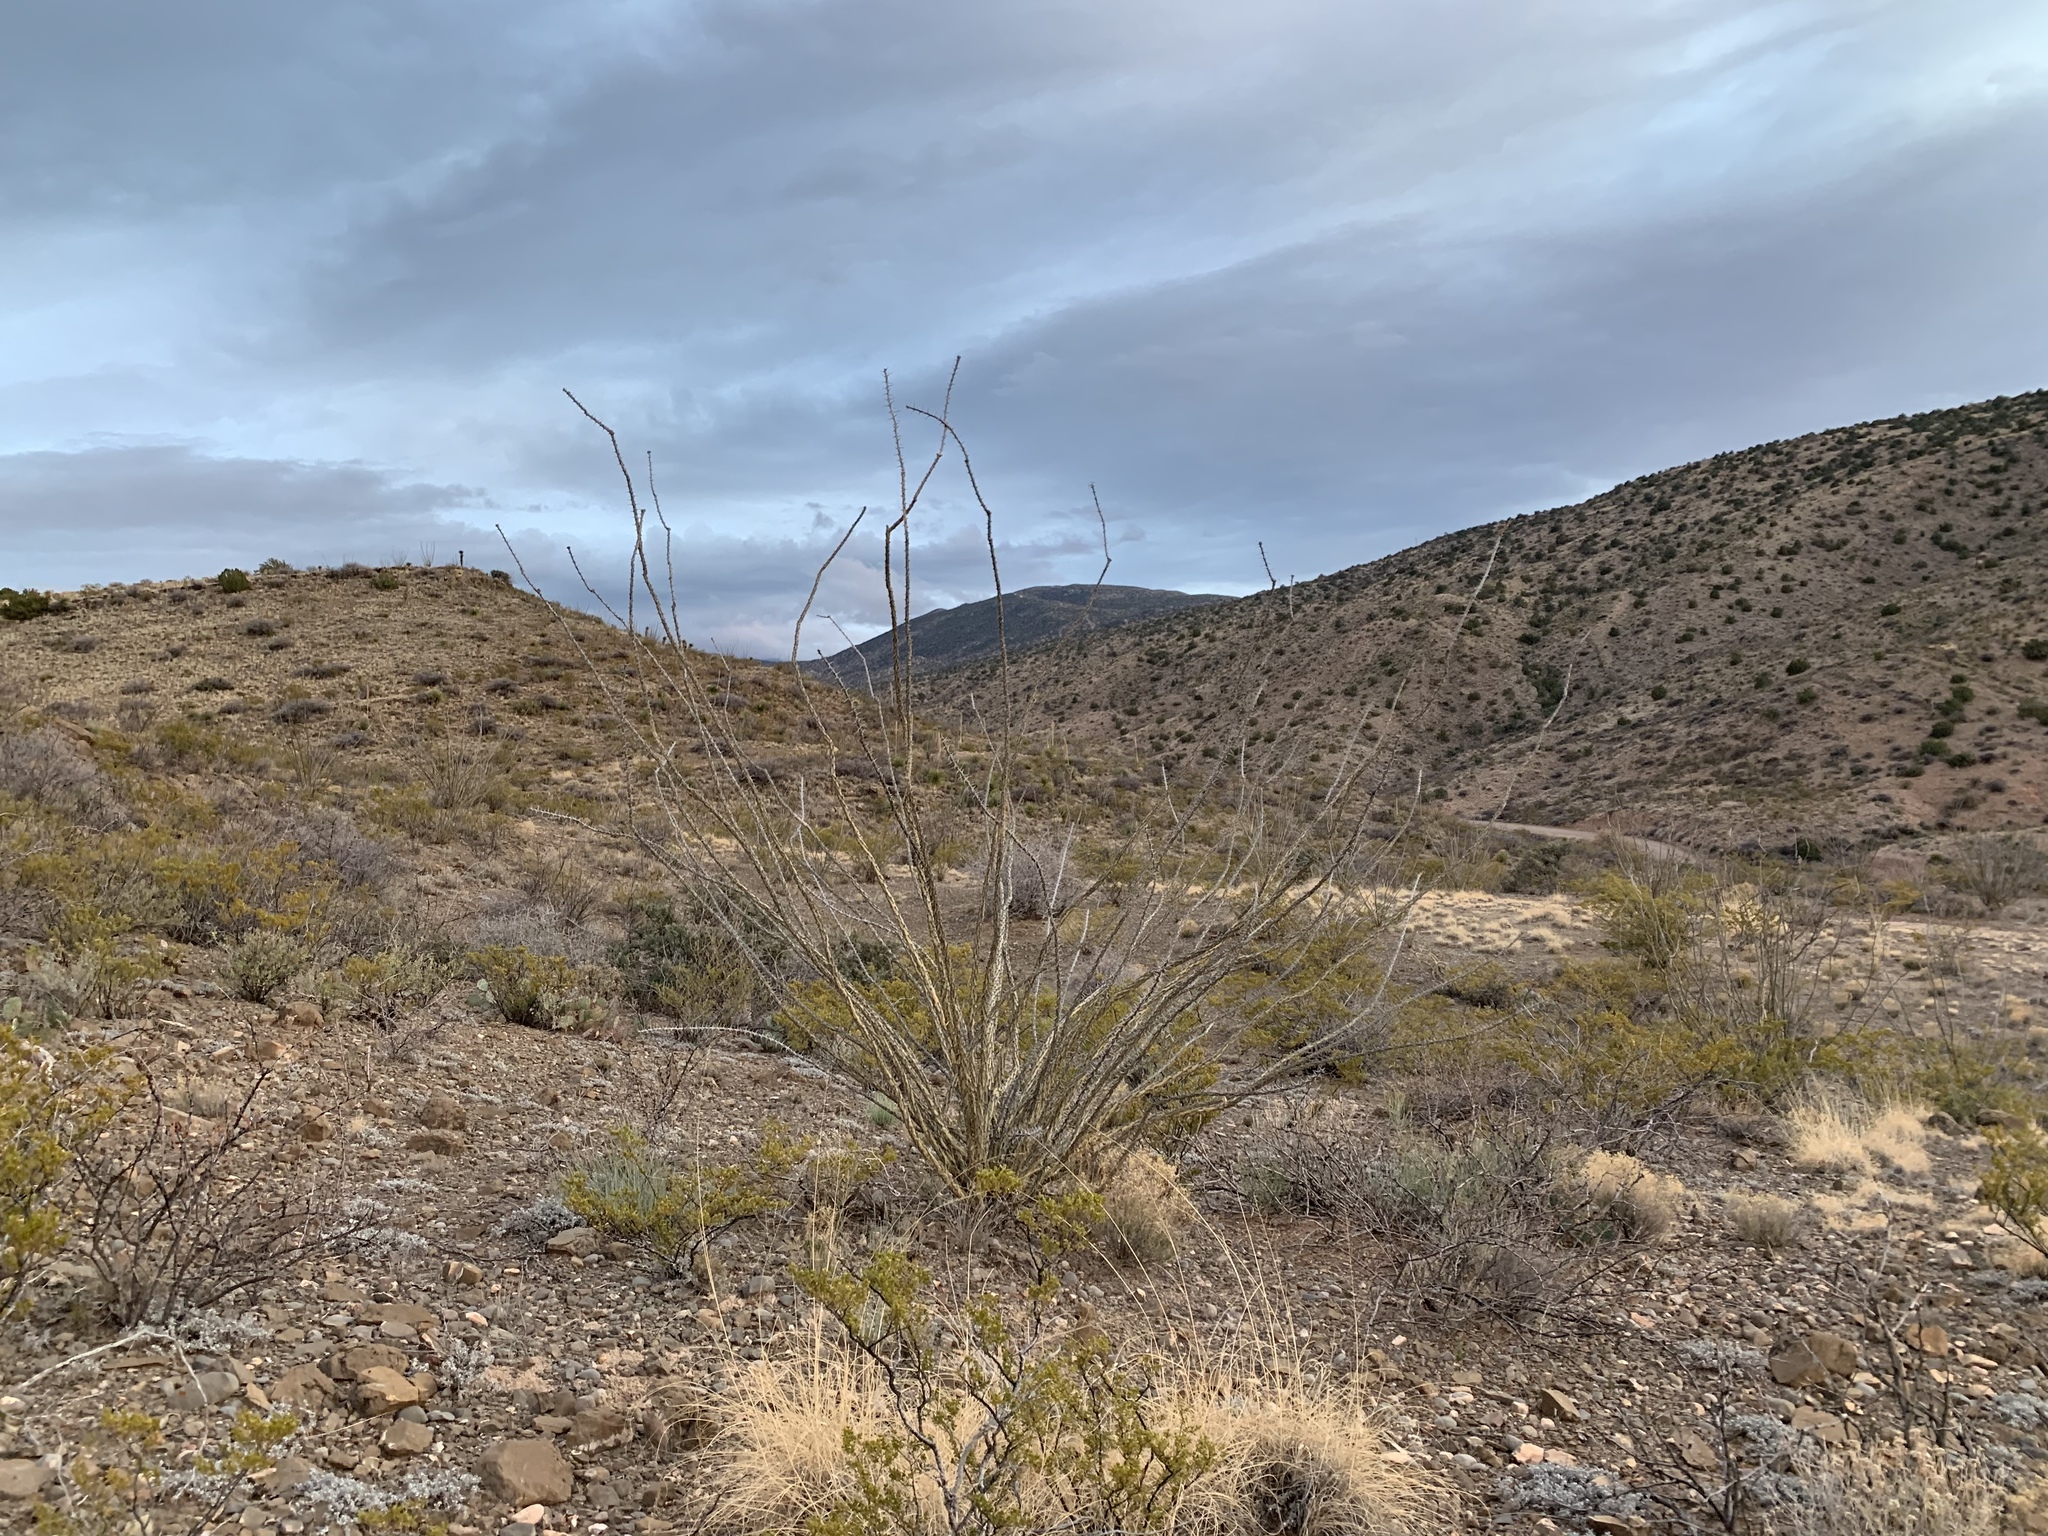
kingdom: Plantae
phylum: Tracheophyta
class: Magnoliopsida
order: Ericales
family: Fouquieriaceae
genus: Fouquieria
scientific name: Fouquieria splendens
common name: Vine-cactus
